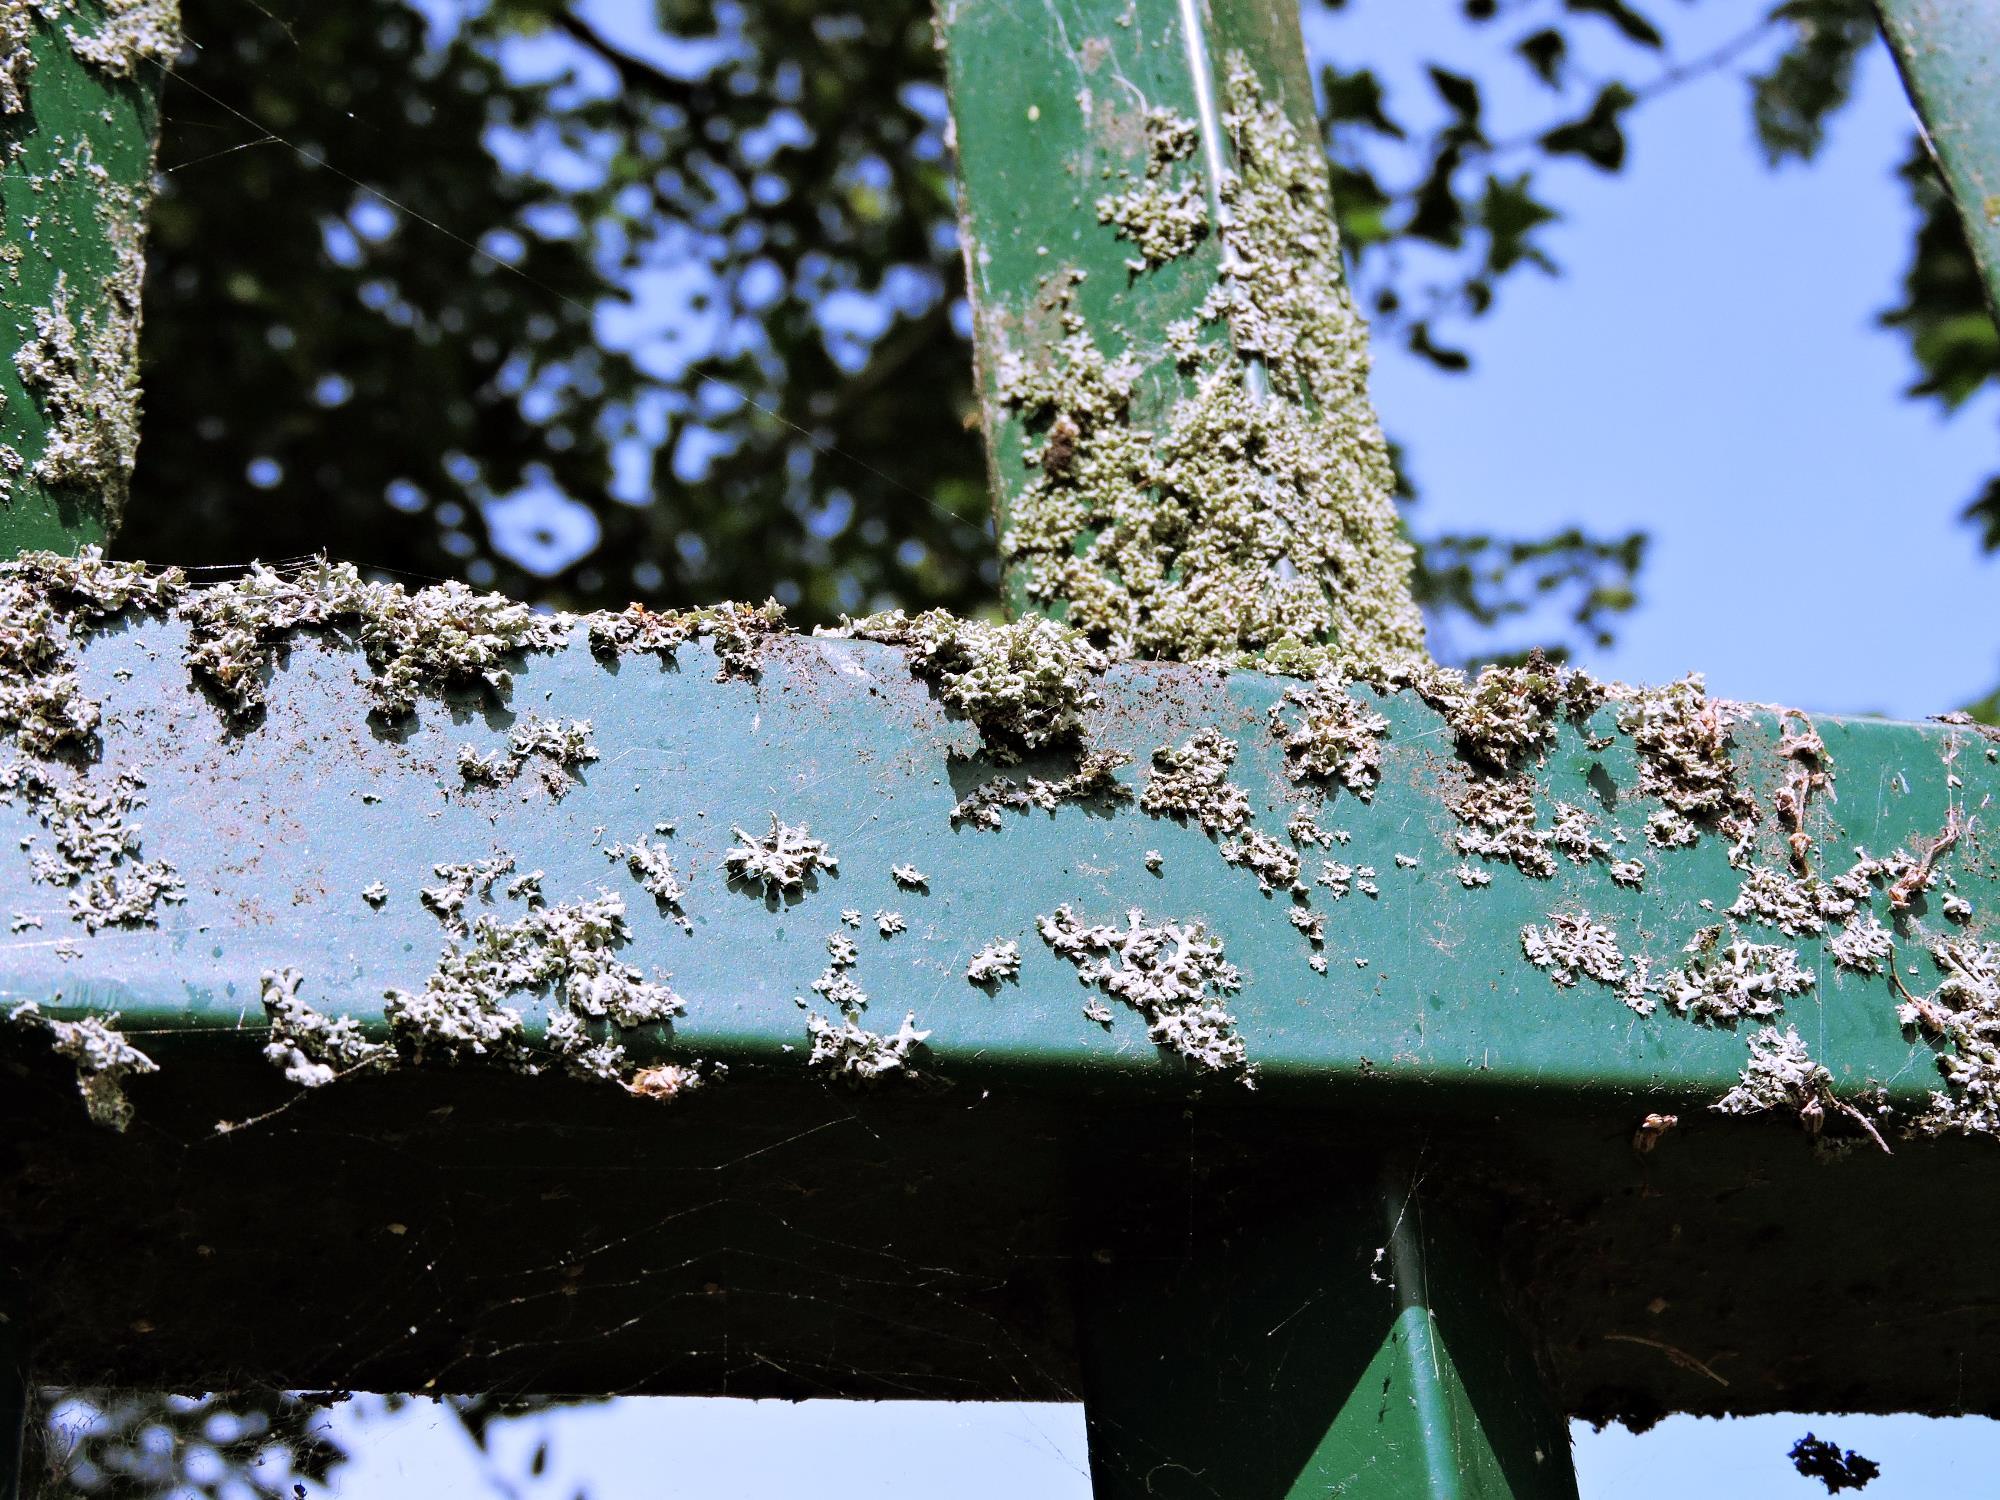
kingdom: Fungi
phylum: Ascomycota
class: Lecanoromycetes
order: Caliciales
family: Physciaceae
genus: Physcia
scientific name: Physcia tenella
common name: Fringed rosette lichen
